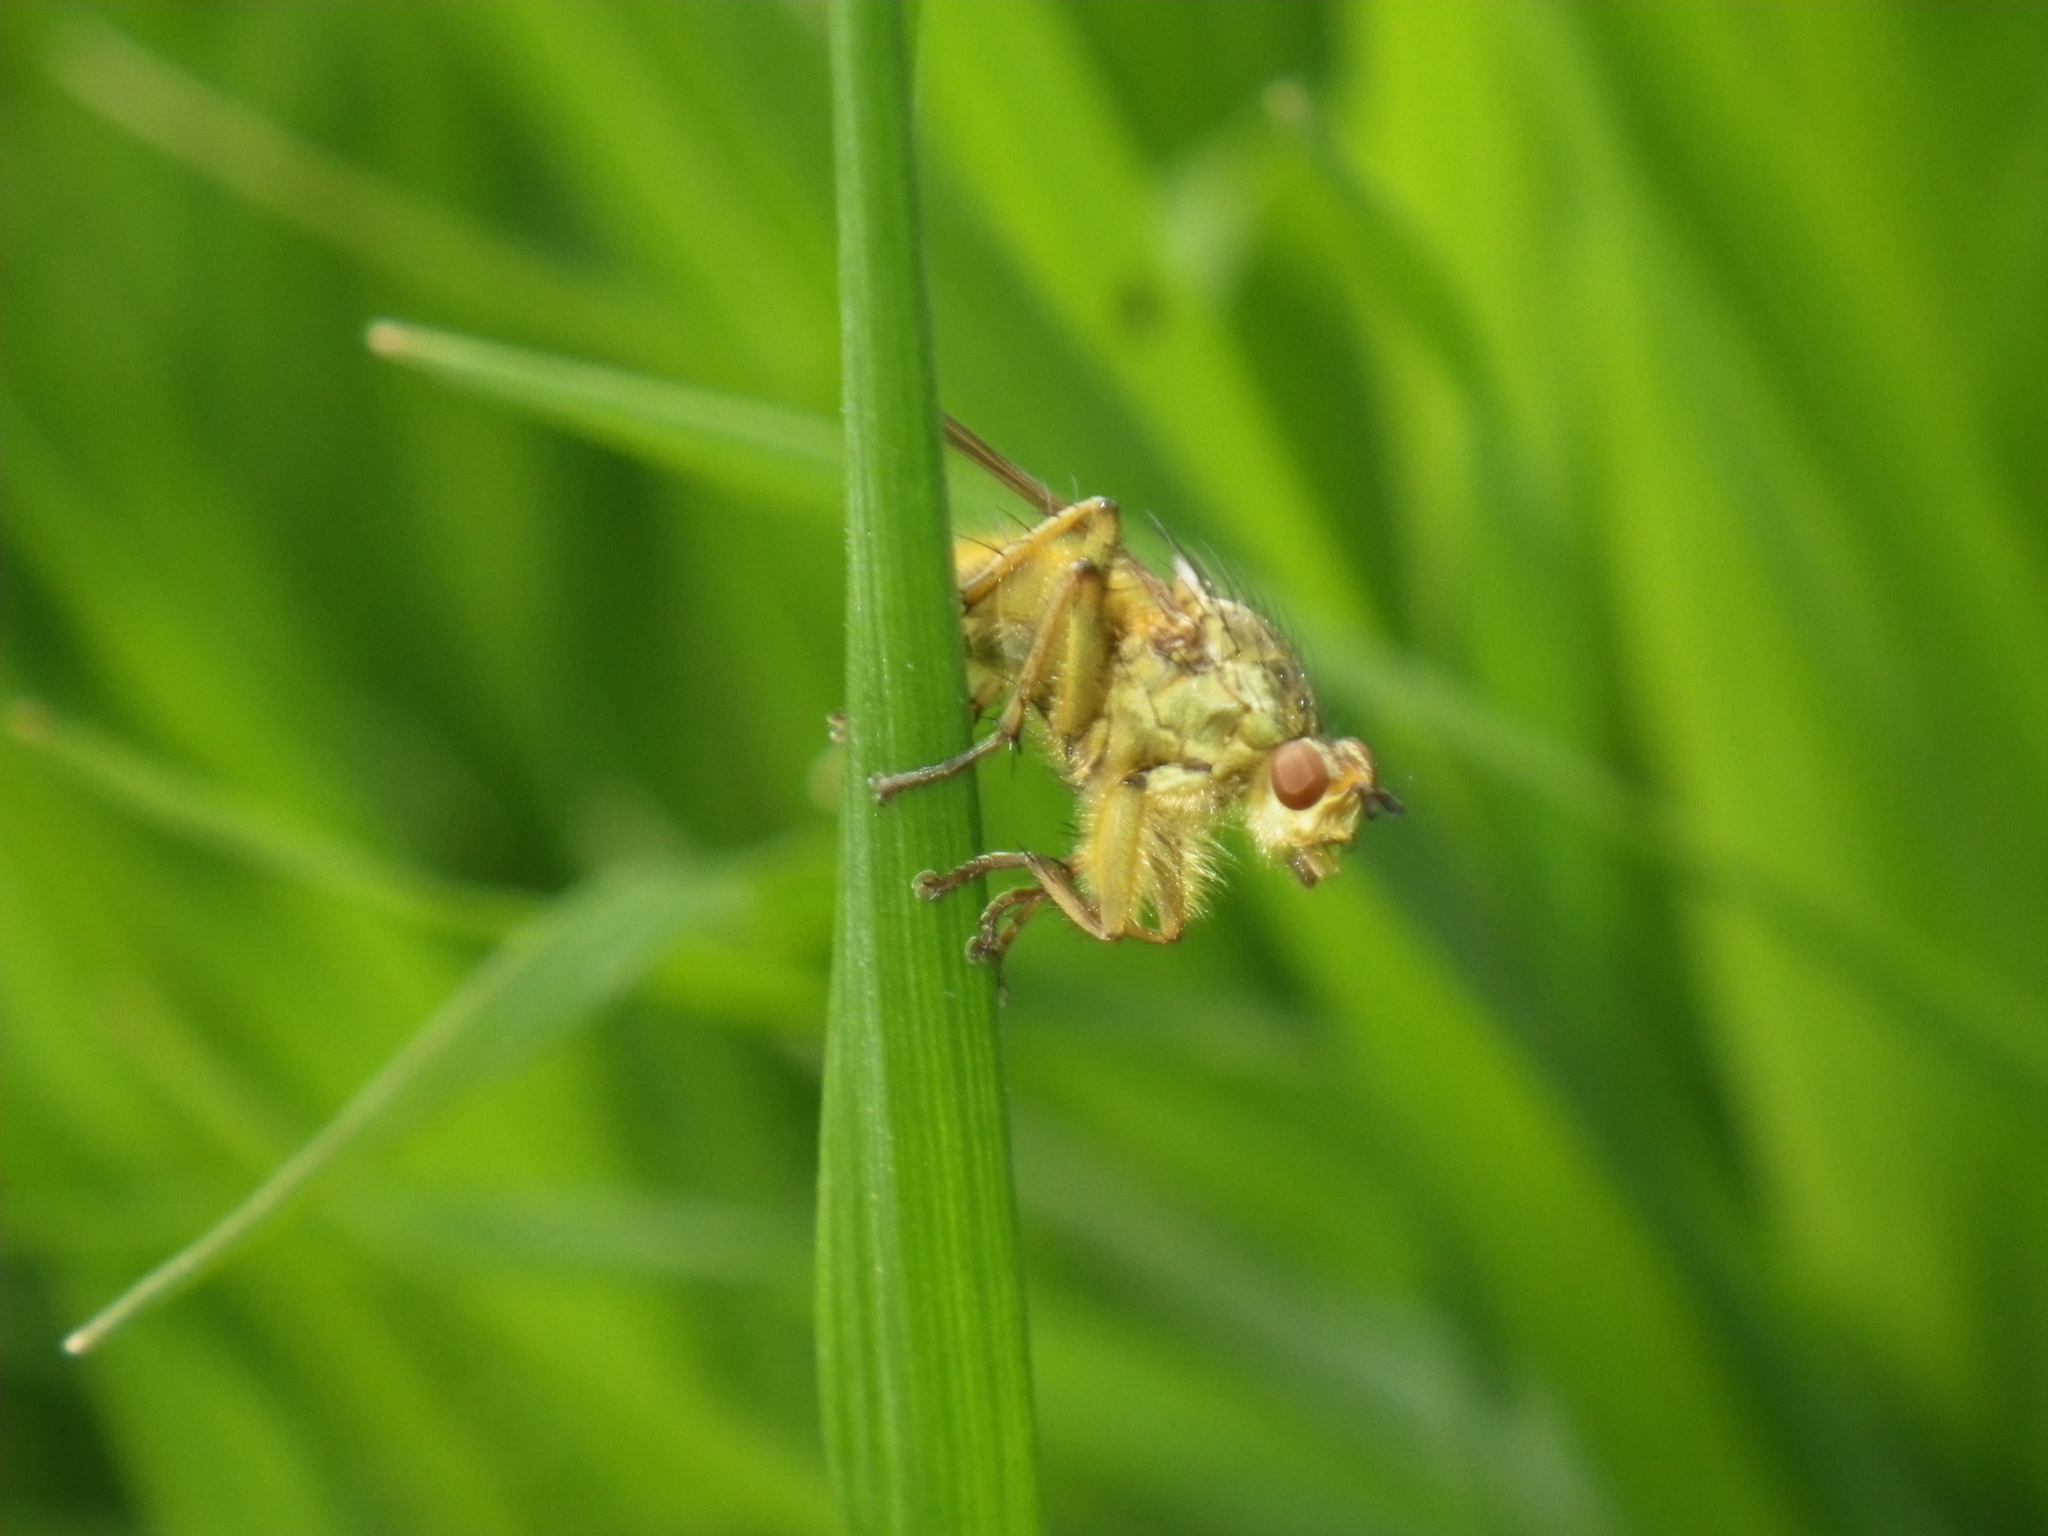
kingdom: Animalia
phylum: Arthropoda
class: Insecta
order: Diptera
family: Scathophagidae
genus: Scathophaga
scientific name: Scathophaga stercoraria
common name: Yellow dung fly
